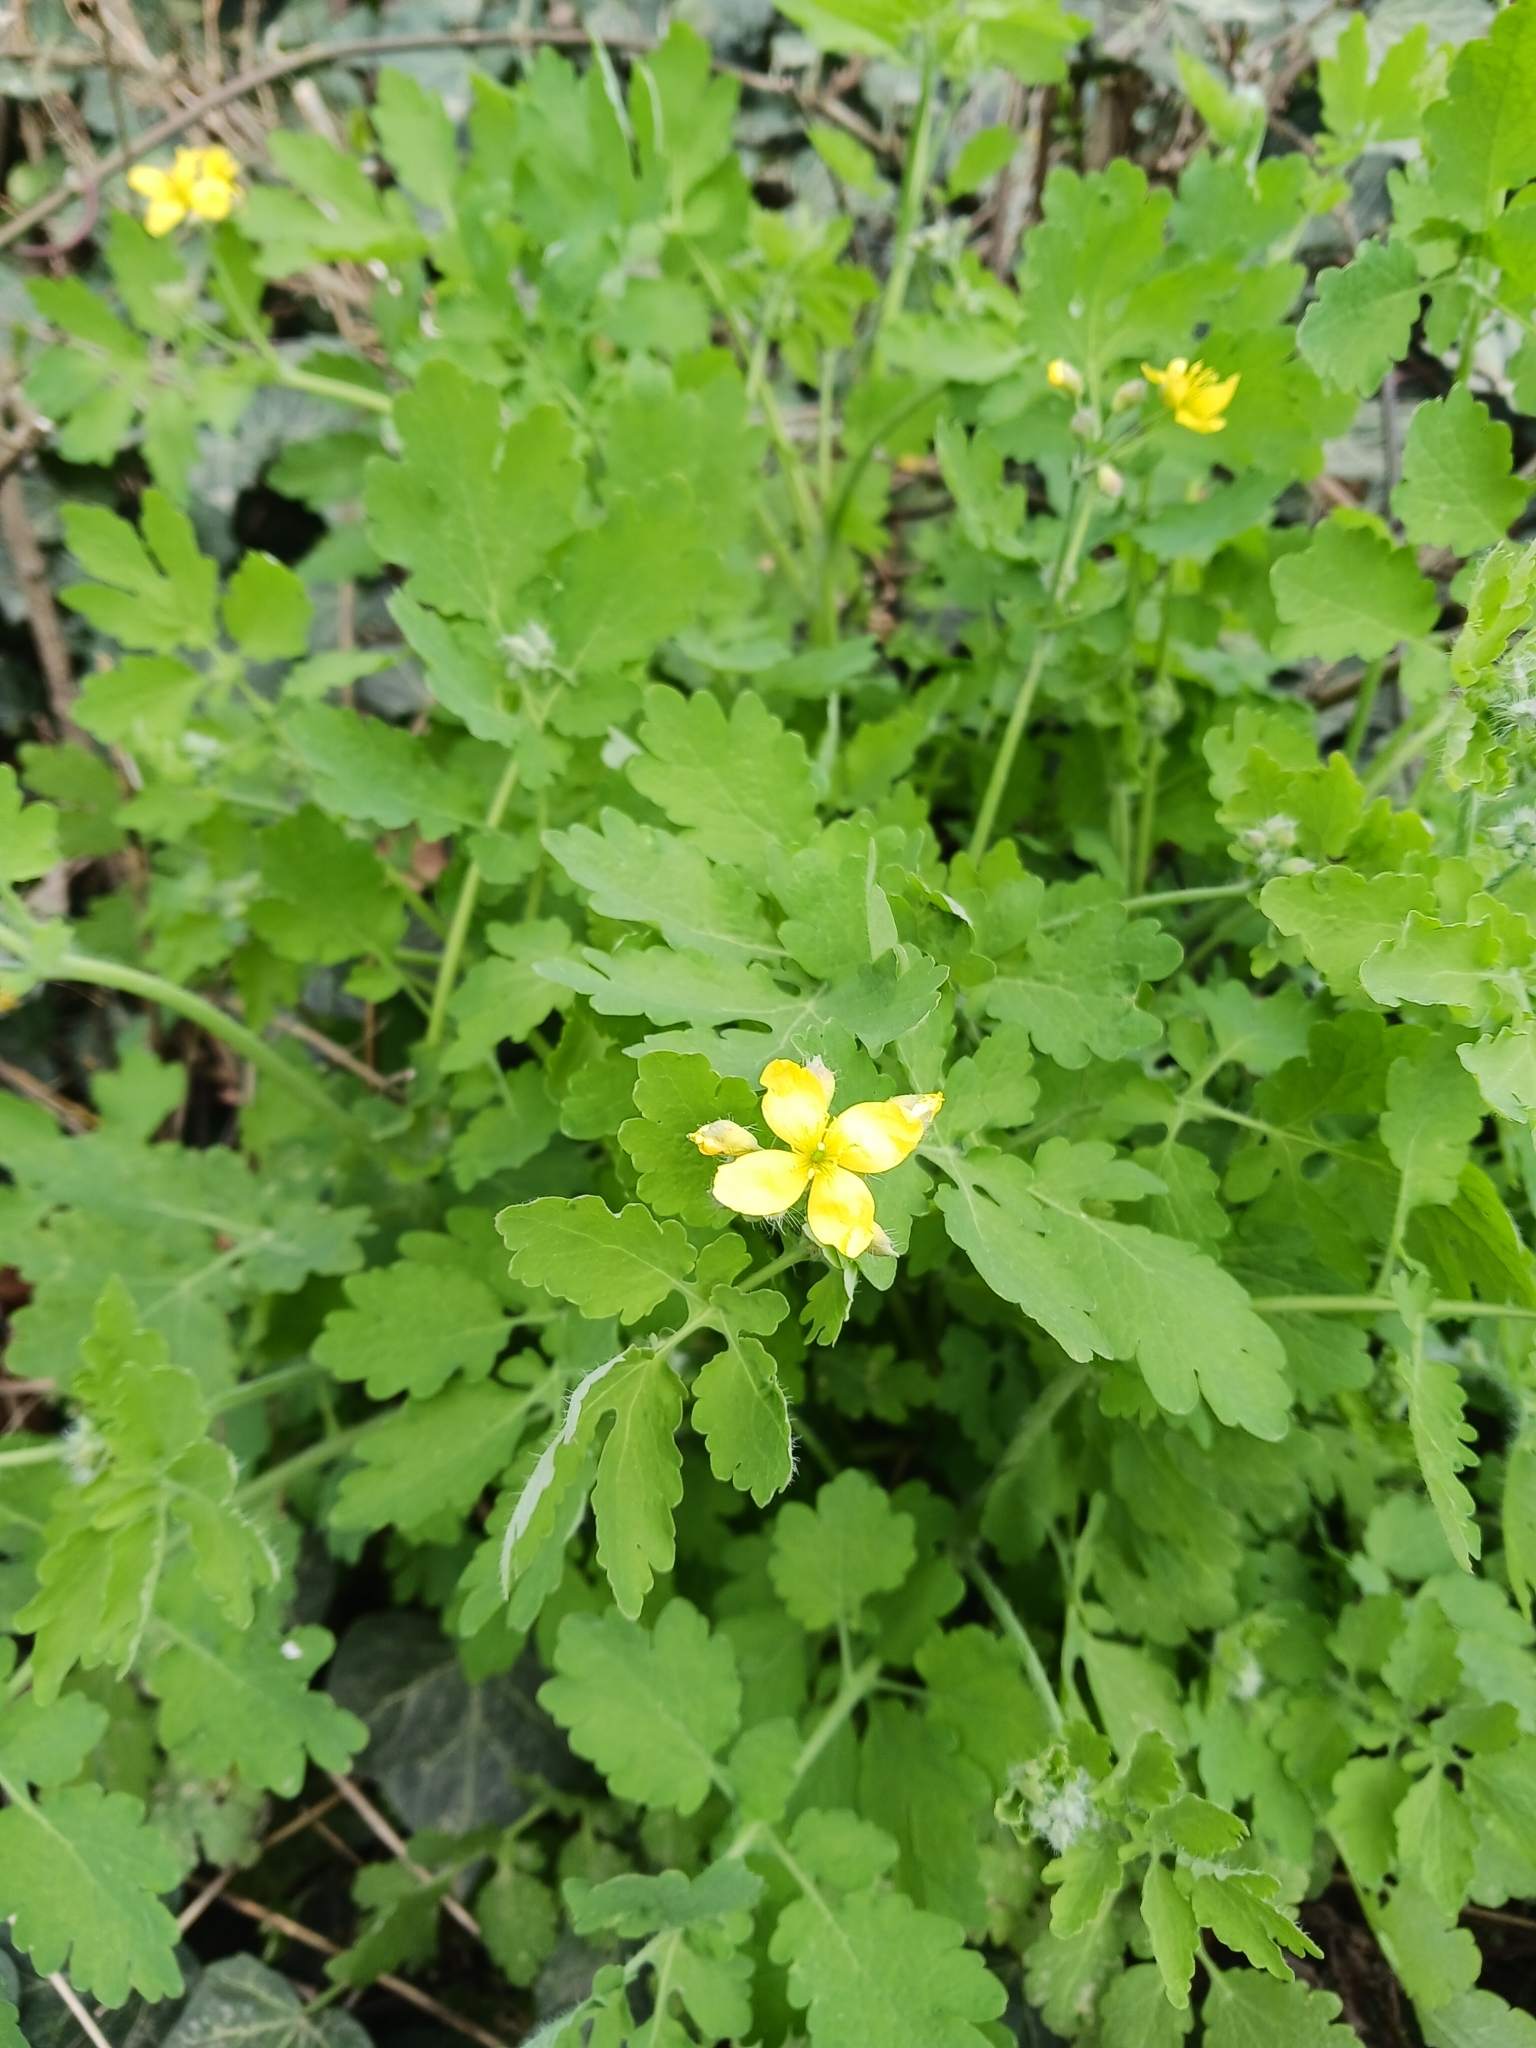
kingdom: Plantae
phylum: Tracheophyta
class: Magnoliopsida
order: Ranunculales
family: Papaveraceae
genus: Chelidonium
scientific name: Chelidonium majus
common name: Greater celandine
